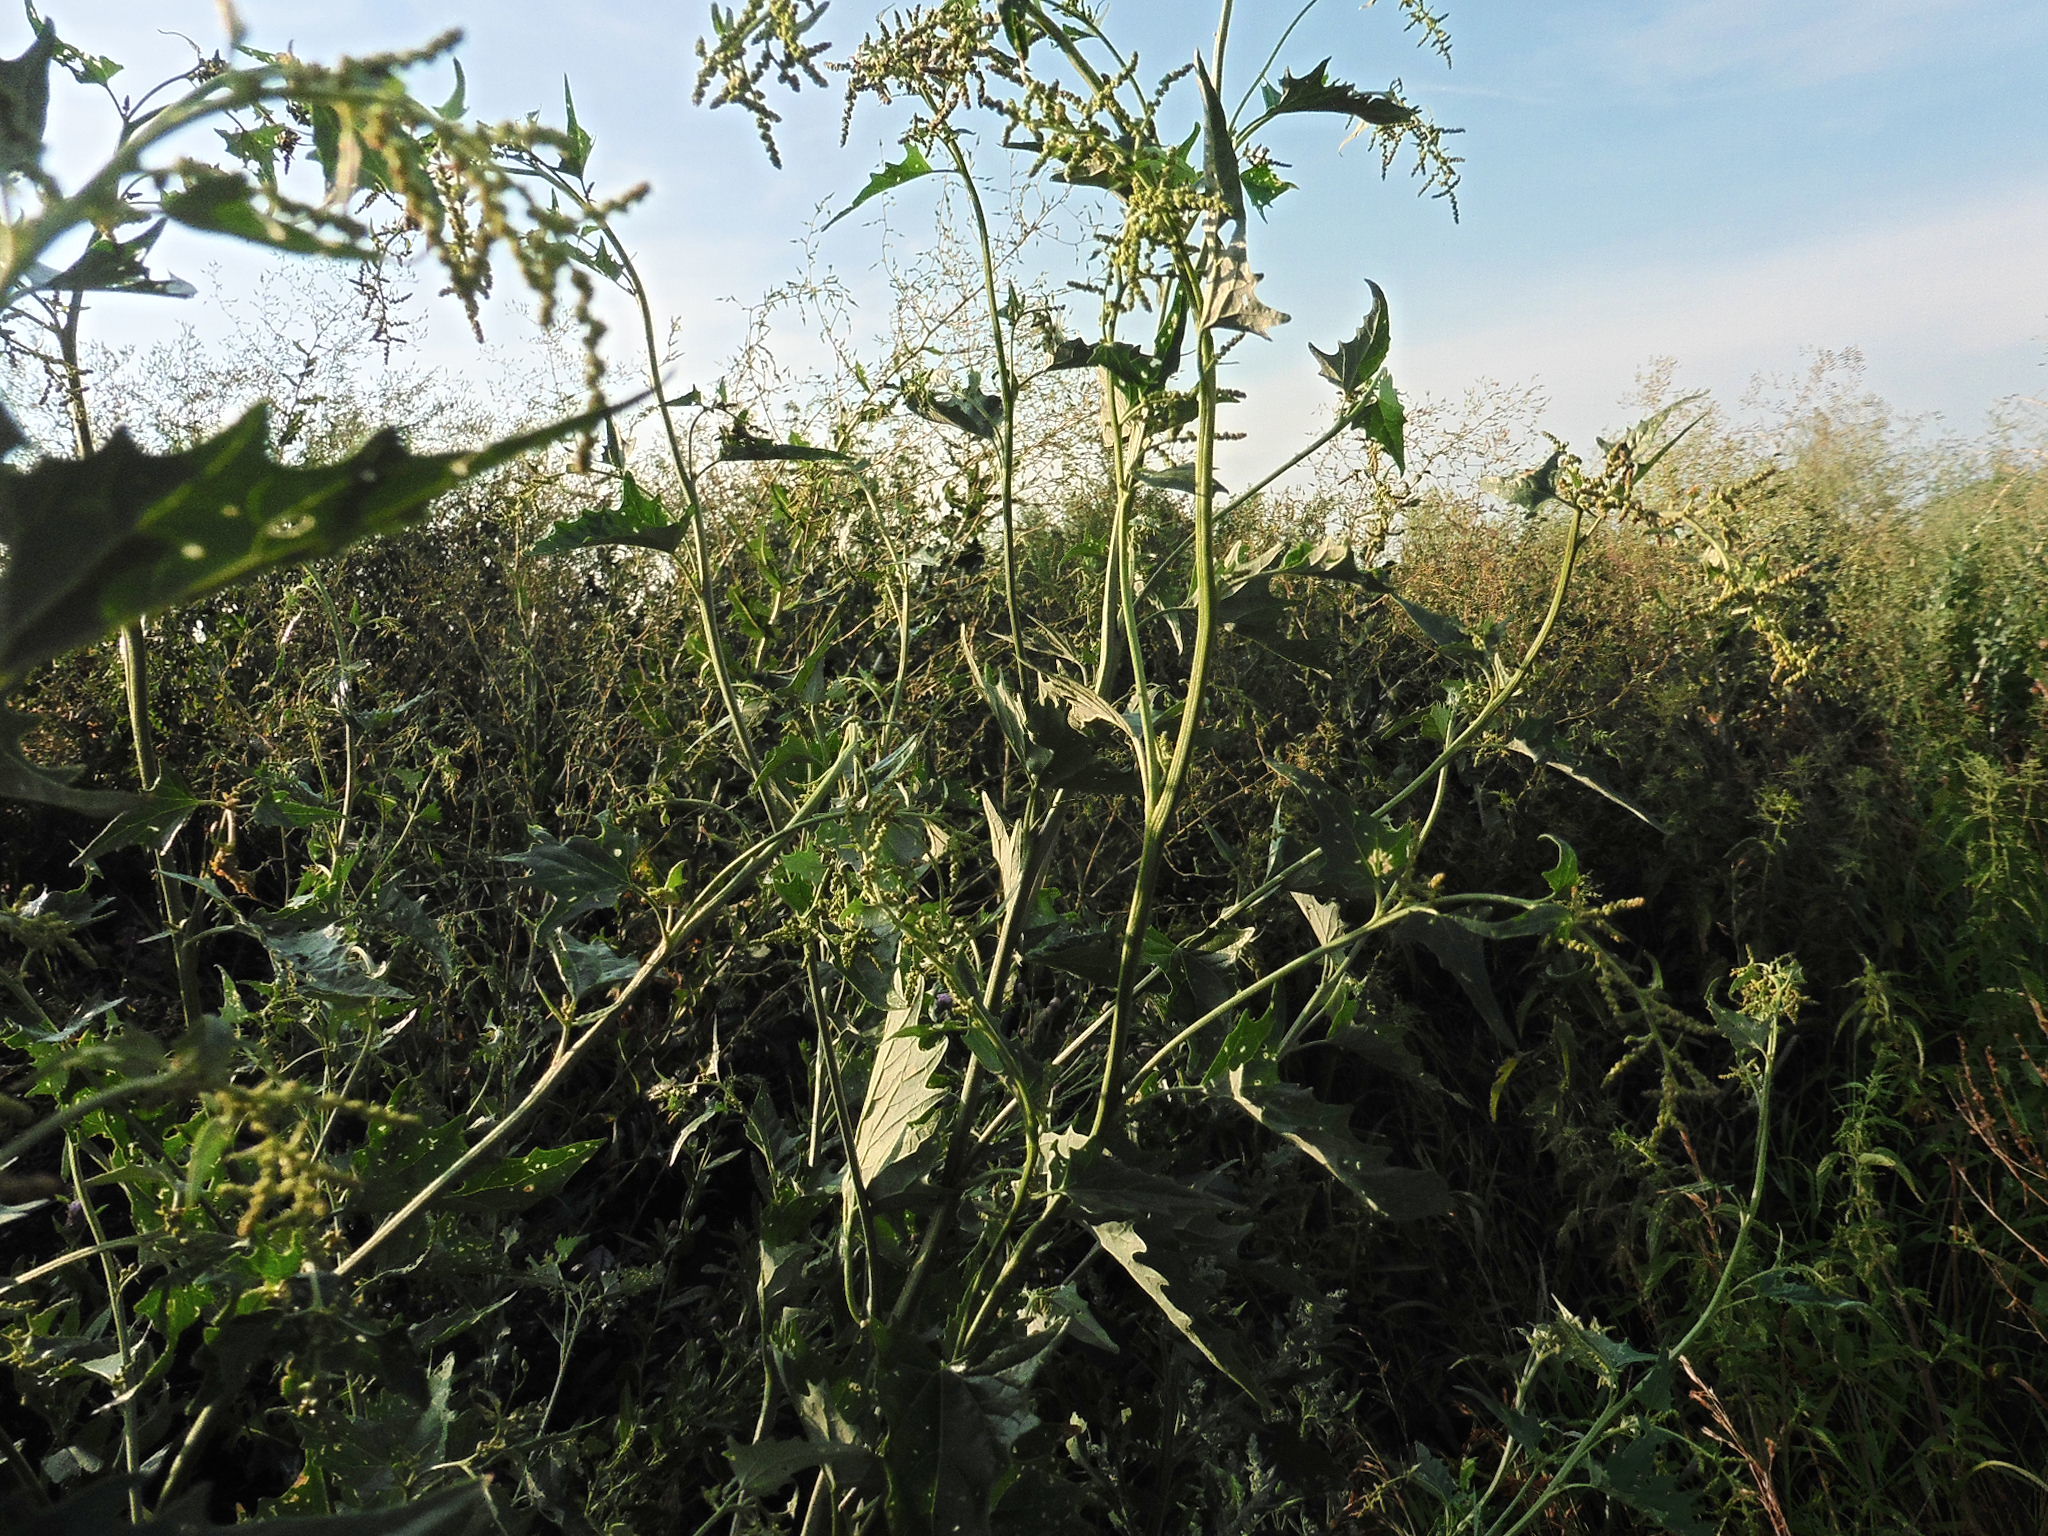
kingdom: Plantae
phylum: Tracheophyta
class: Magnoliopsida
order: Caryophyllales
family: Amaranthaceae
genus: Atriplex
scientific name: Atriplex sagittata
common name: Purple orache
